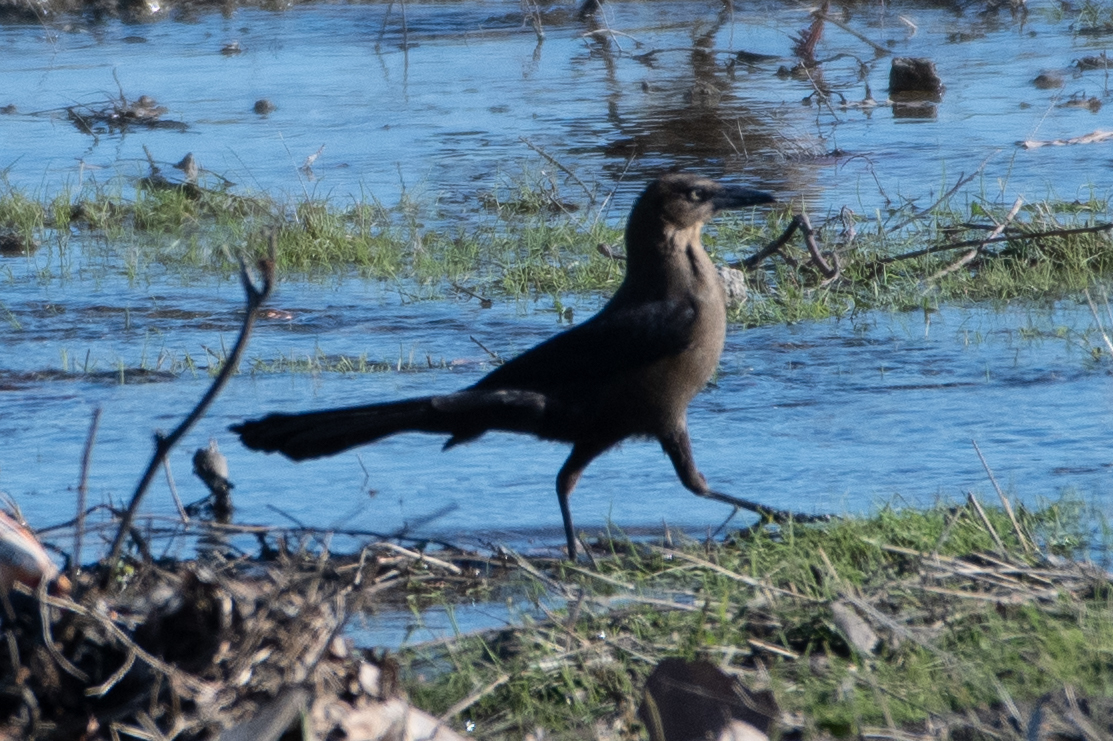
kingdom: Animalia
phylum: Chordata
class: Aves
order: Passeriformes
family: Icteridae
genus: Quiscalus
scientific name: Quiscalus mexicanus
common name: Great-tailed grackle
